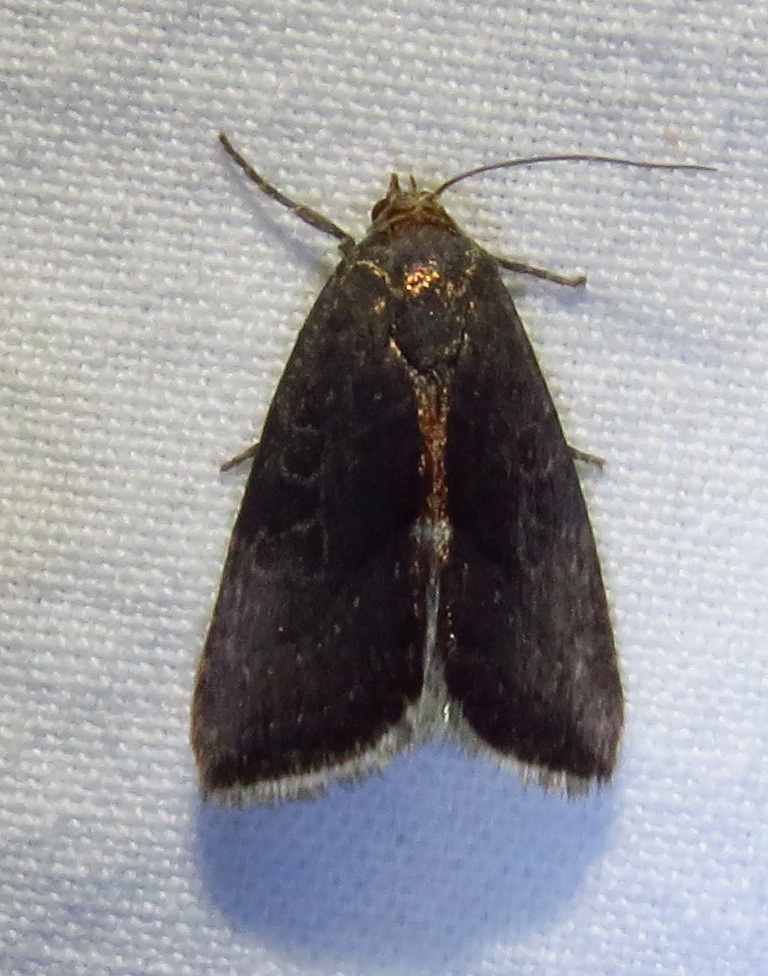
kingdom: Animalia
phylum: Arthropoda
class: Insecta
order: Lepidoptera
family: Noctuidae
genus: Galgula
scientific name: Galgula partita
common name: Wedgeling
